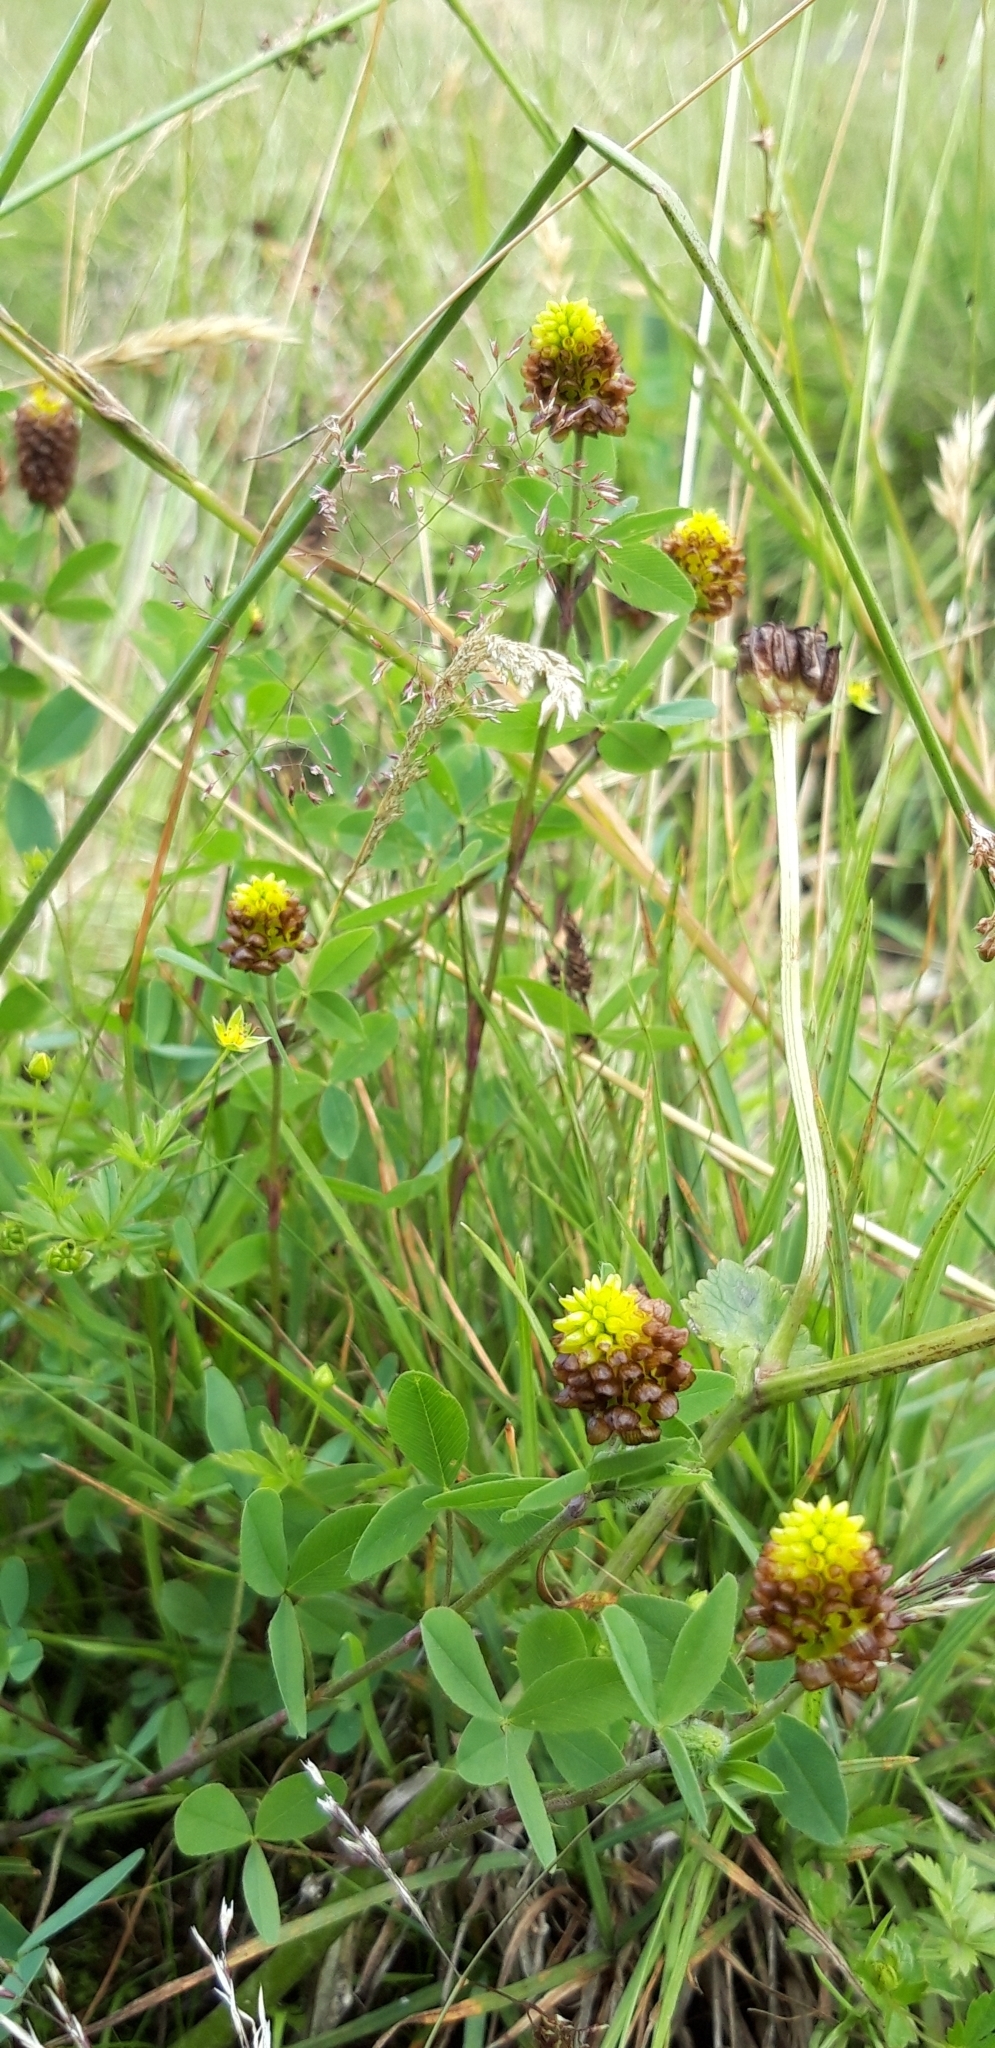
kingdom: Plantae
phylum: Tracheophyta
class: Magnoliopsida
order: Fabales
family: Fabaceae
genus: Trifolium
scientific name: Trifolium badium
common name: Brown clover
